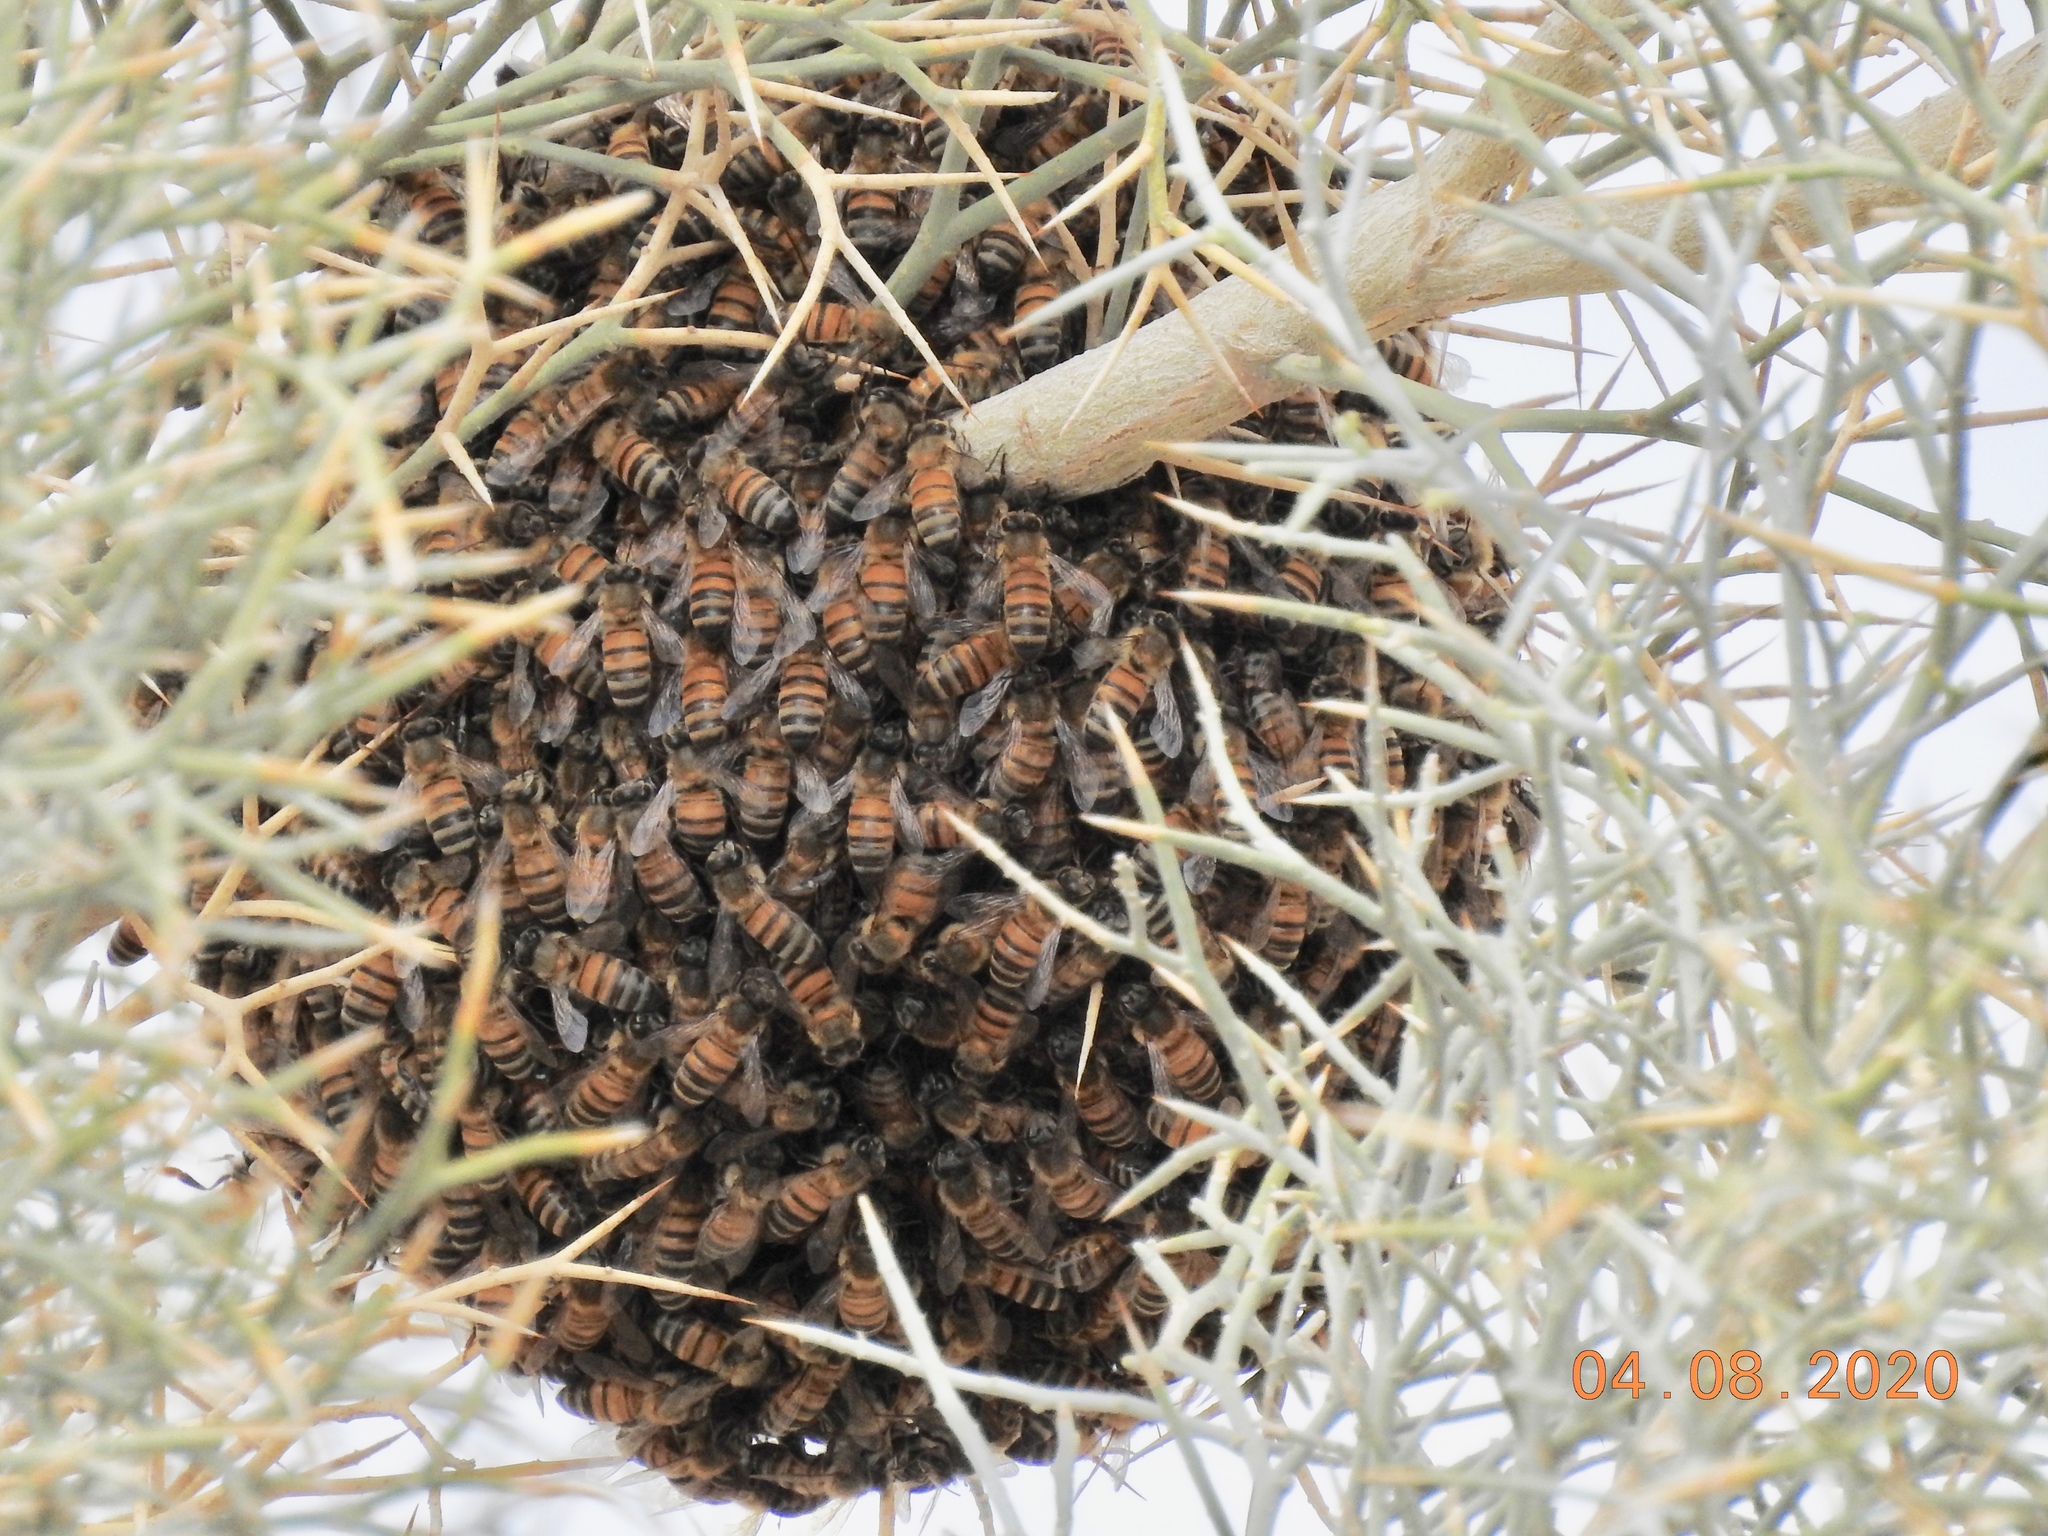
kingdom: Animalia
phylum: Arthropoda
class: Insecta
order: Hymenoptera
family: Apidae
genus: Apis
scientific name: Apis mellifera
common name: Honey bee
